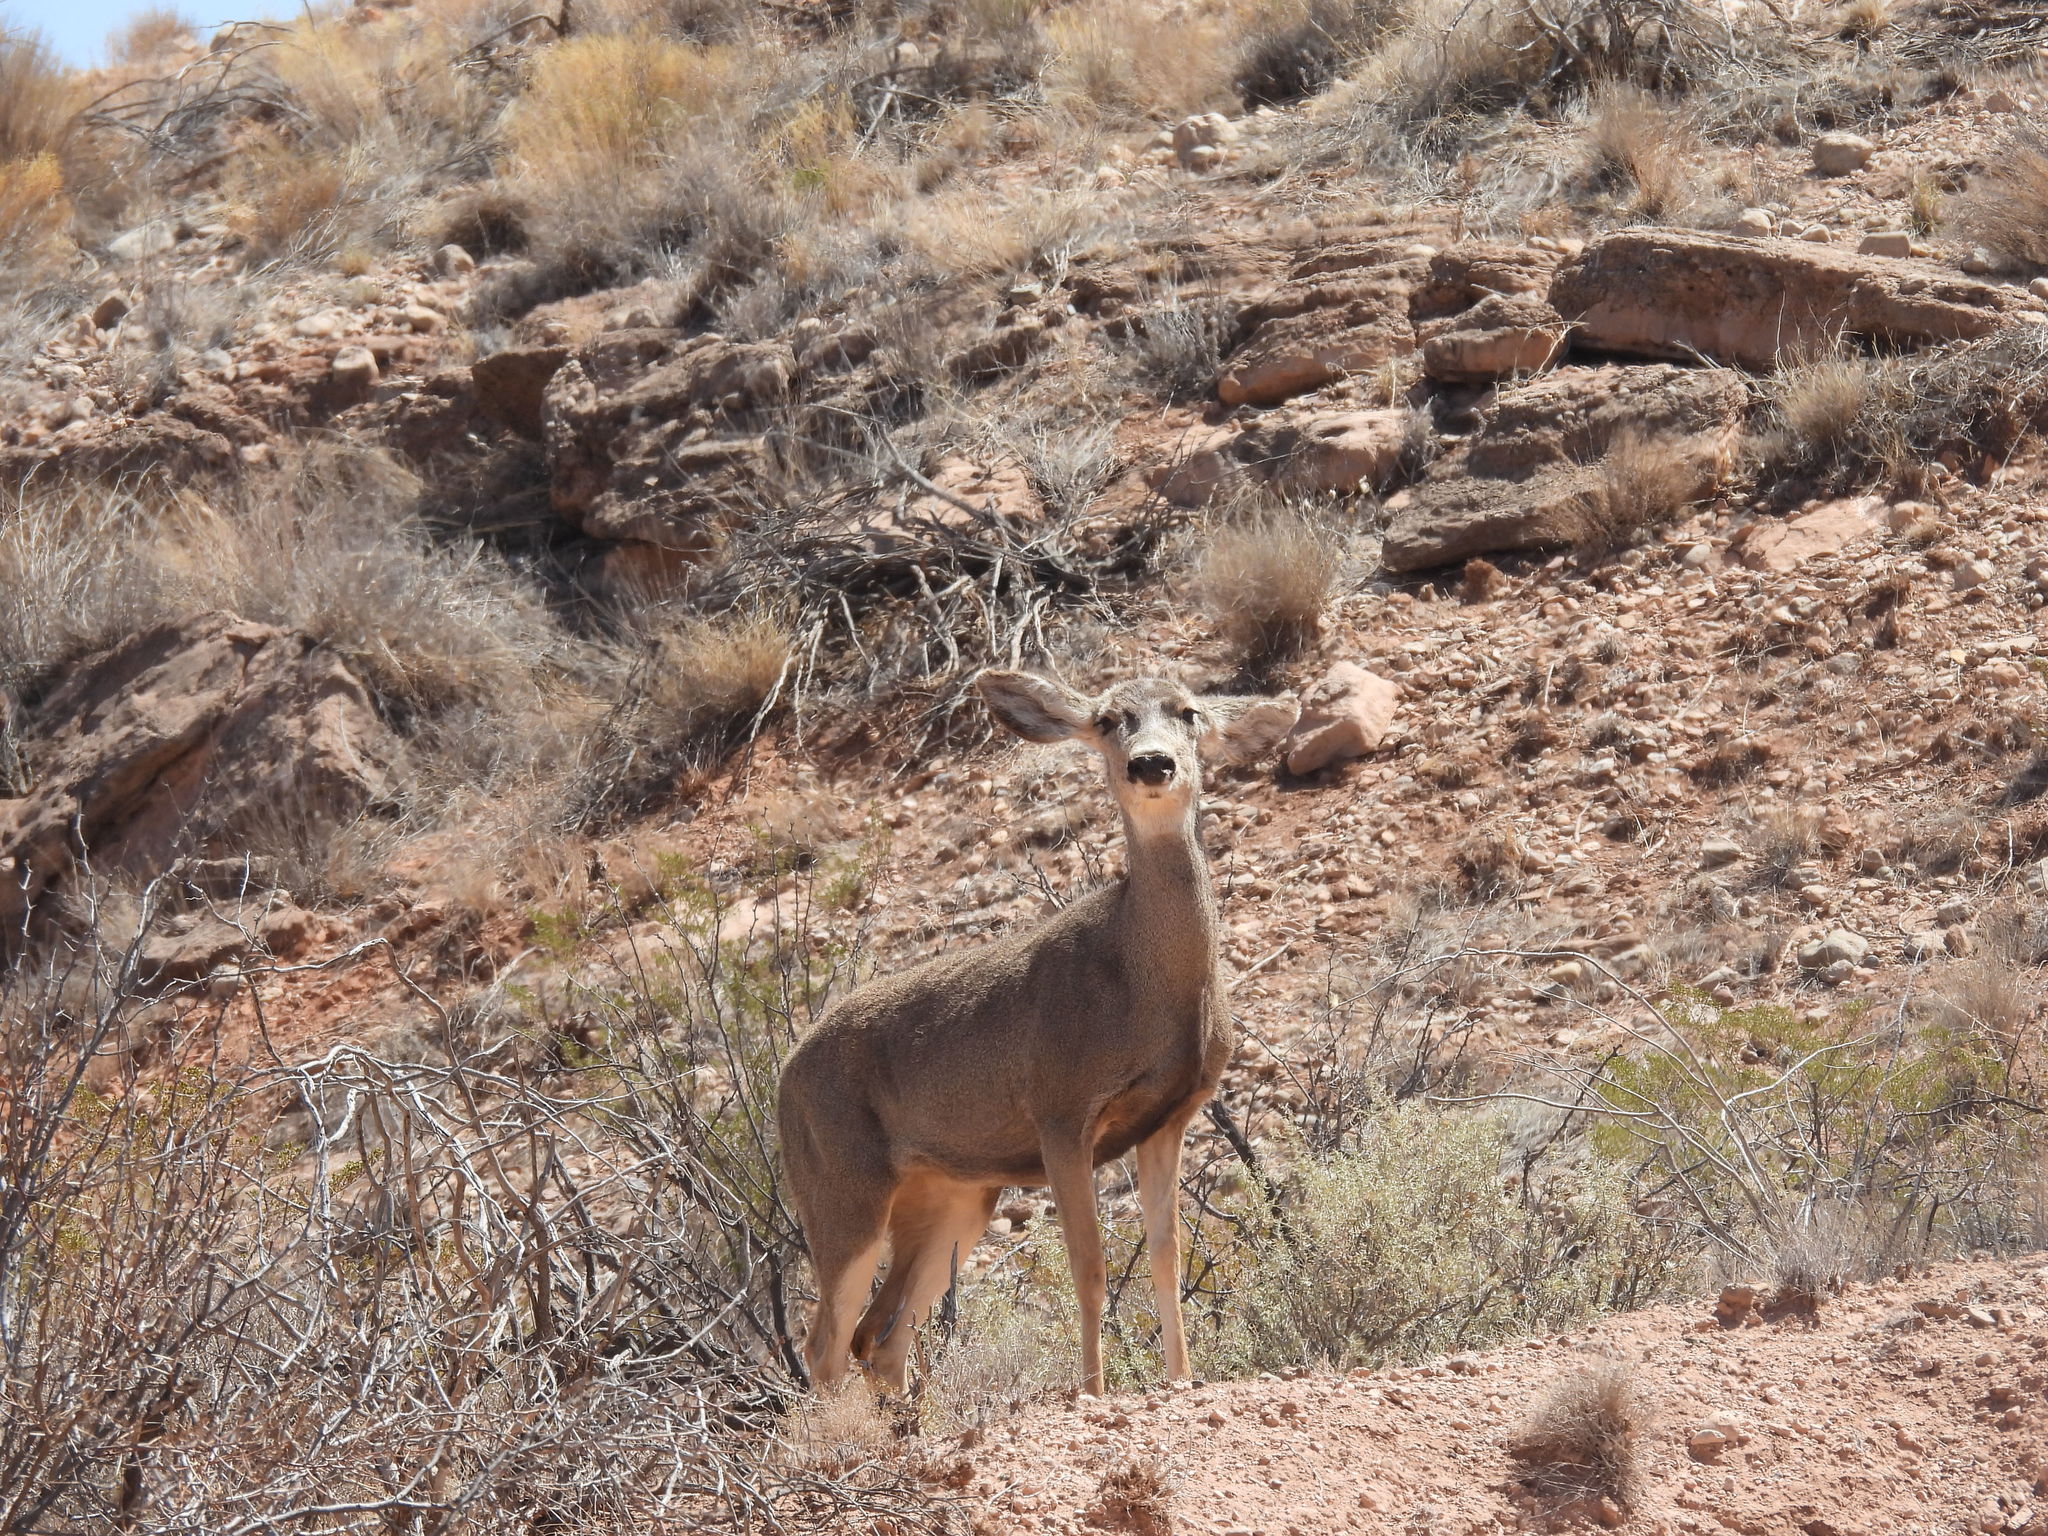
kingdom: Animalia
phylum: Chordata
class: Mammalia
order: Artiodactyla
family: Cervidae
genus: Odocoileus
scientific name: Odocoileus hemionus
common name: Mule deer
